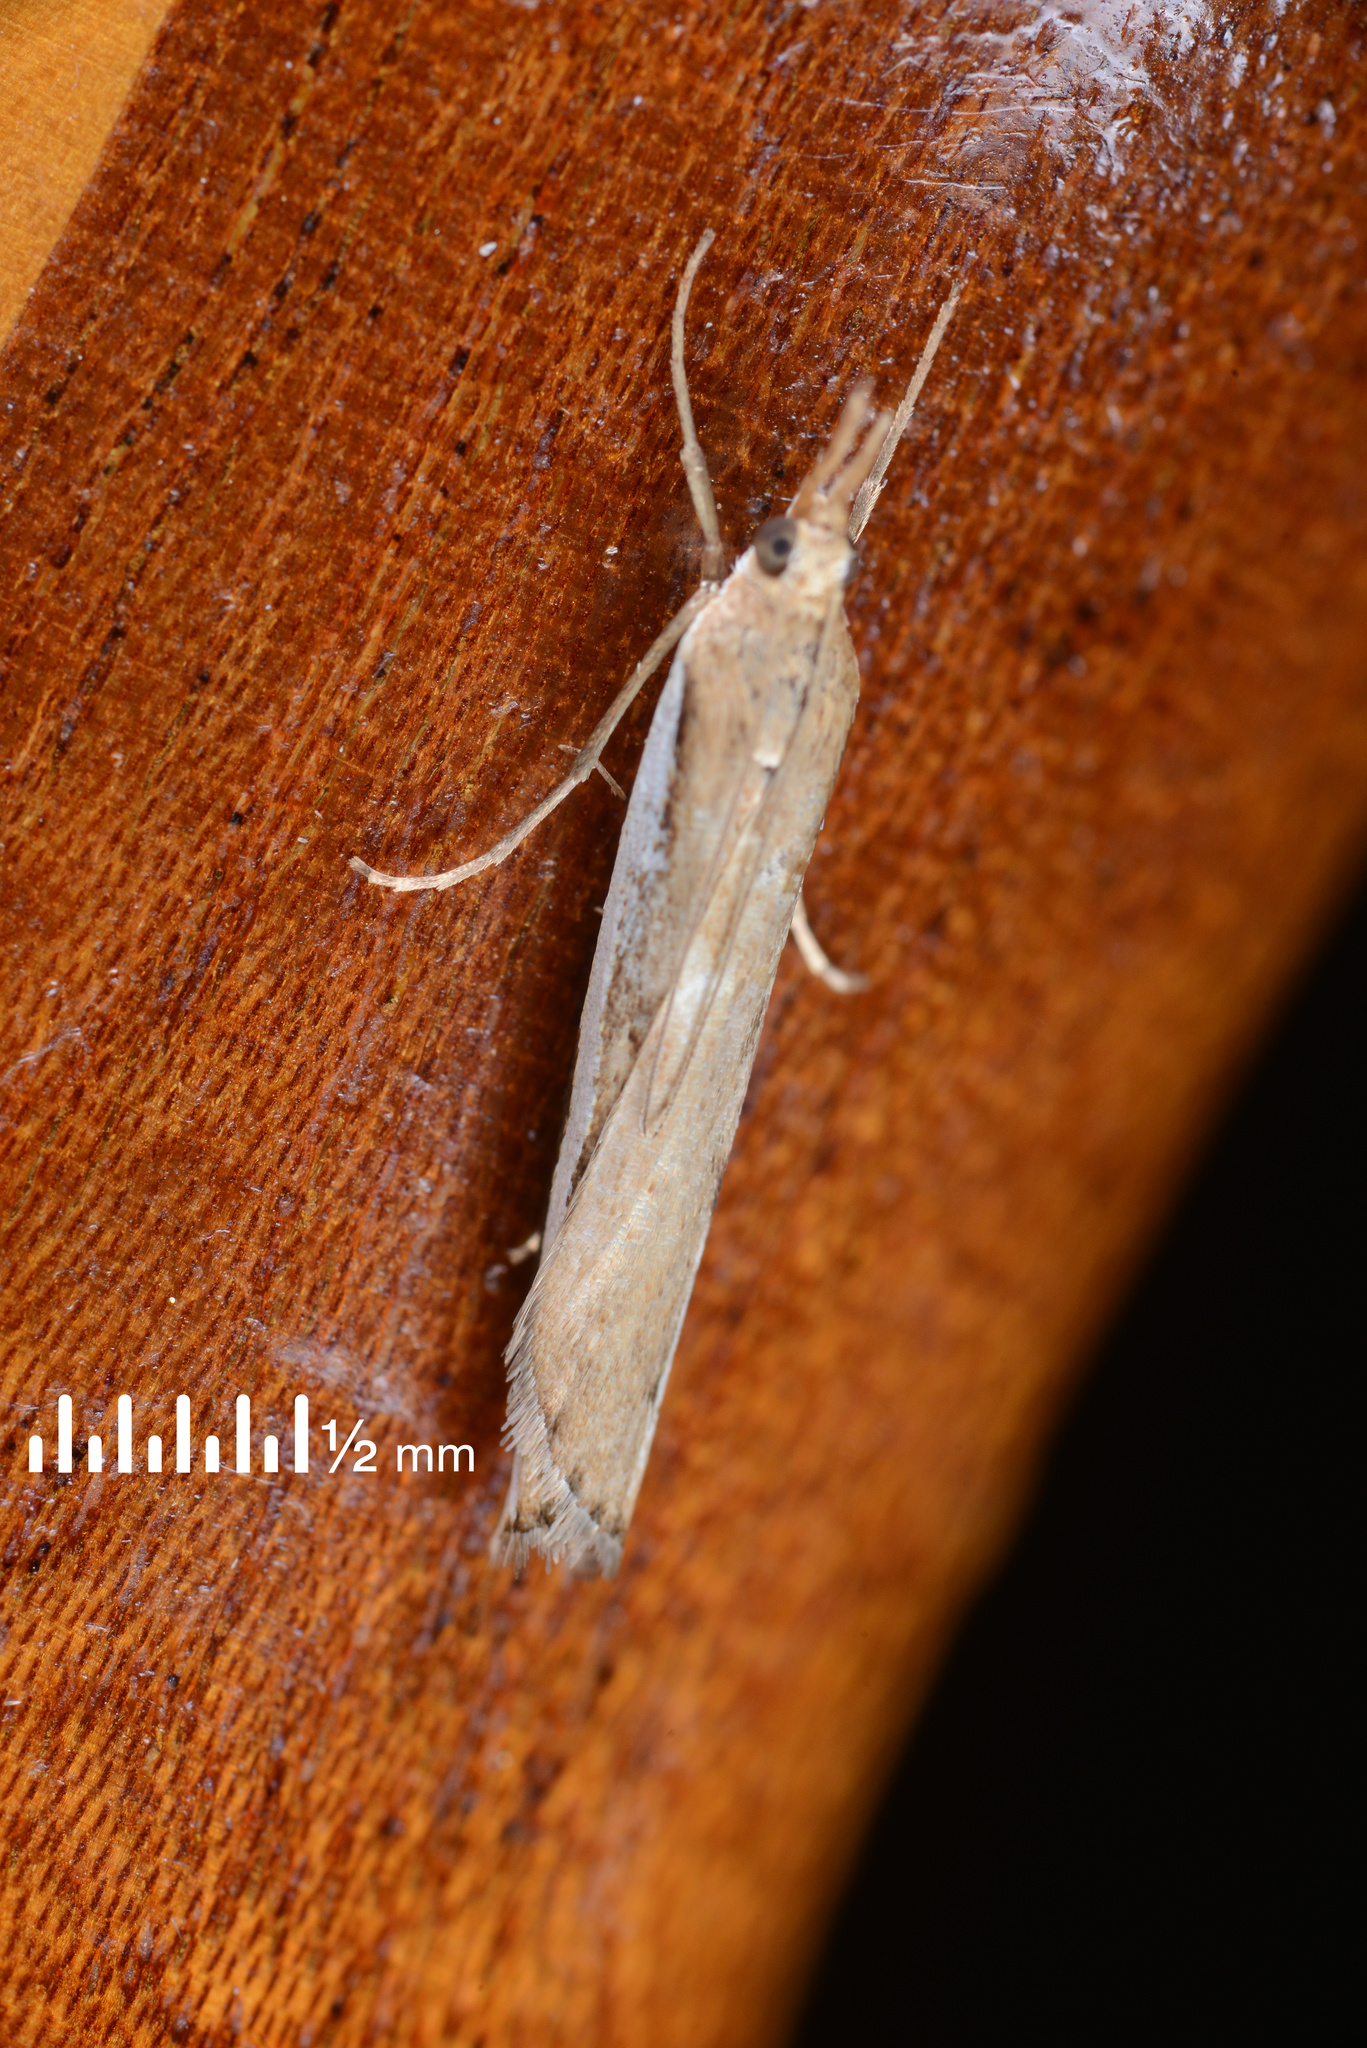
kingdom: Animalia
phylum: Arthropoda
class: Insecta
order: Lepidoptera
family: Crambidae
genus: Orocrambus
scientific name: Orocrambus flexuosellus
